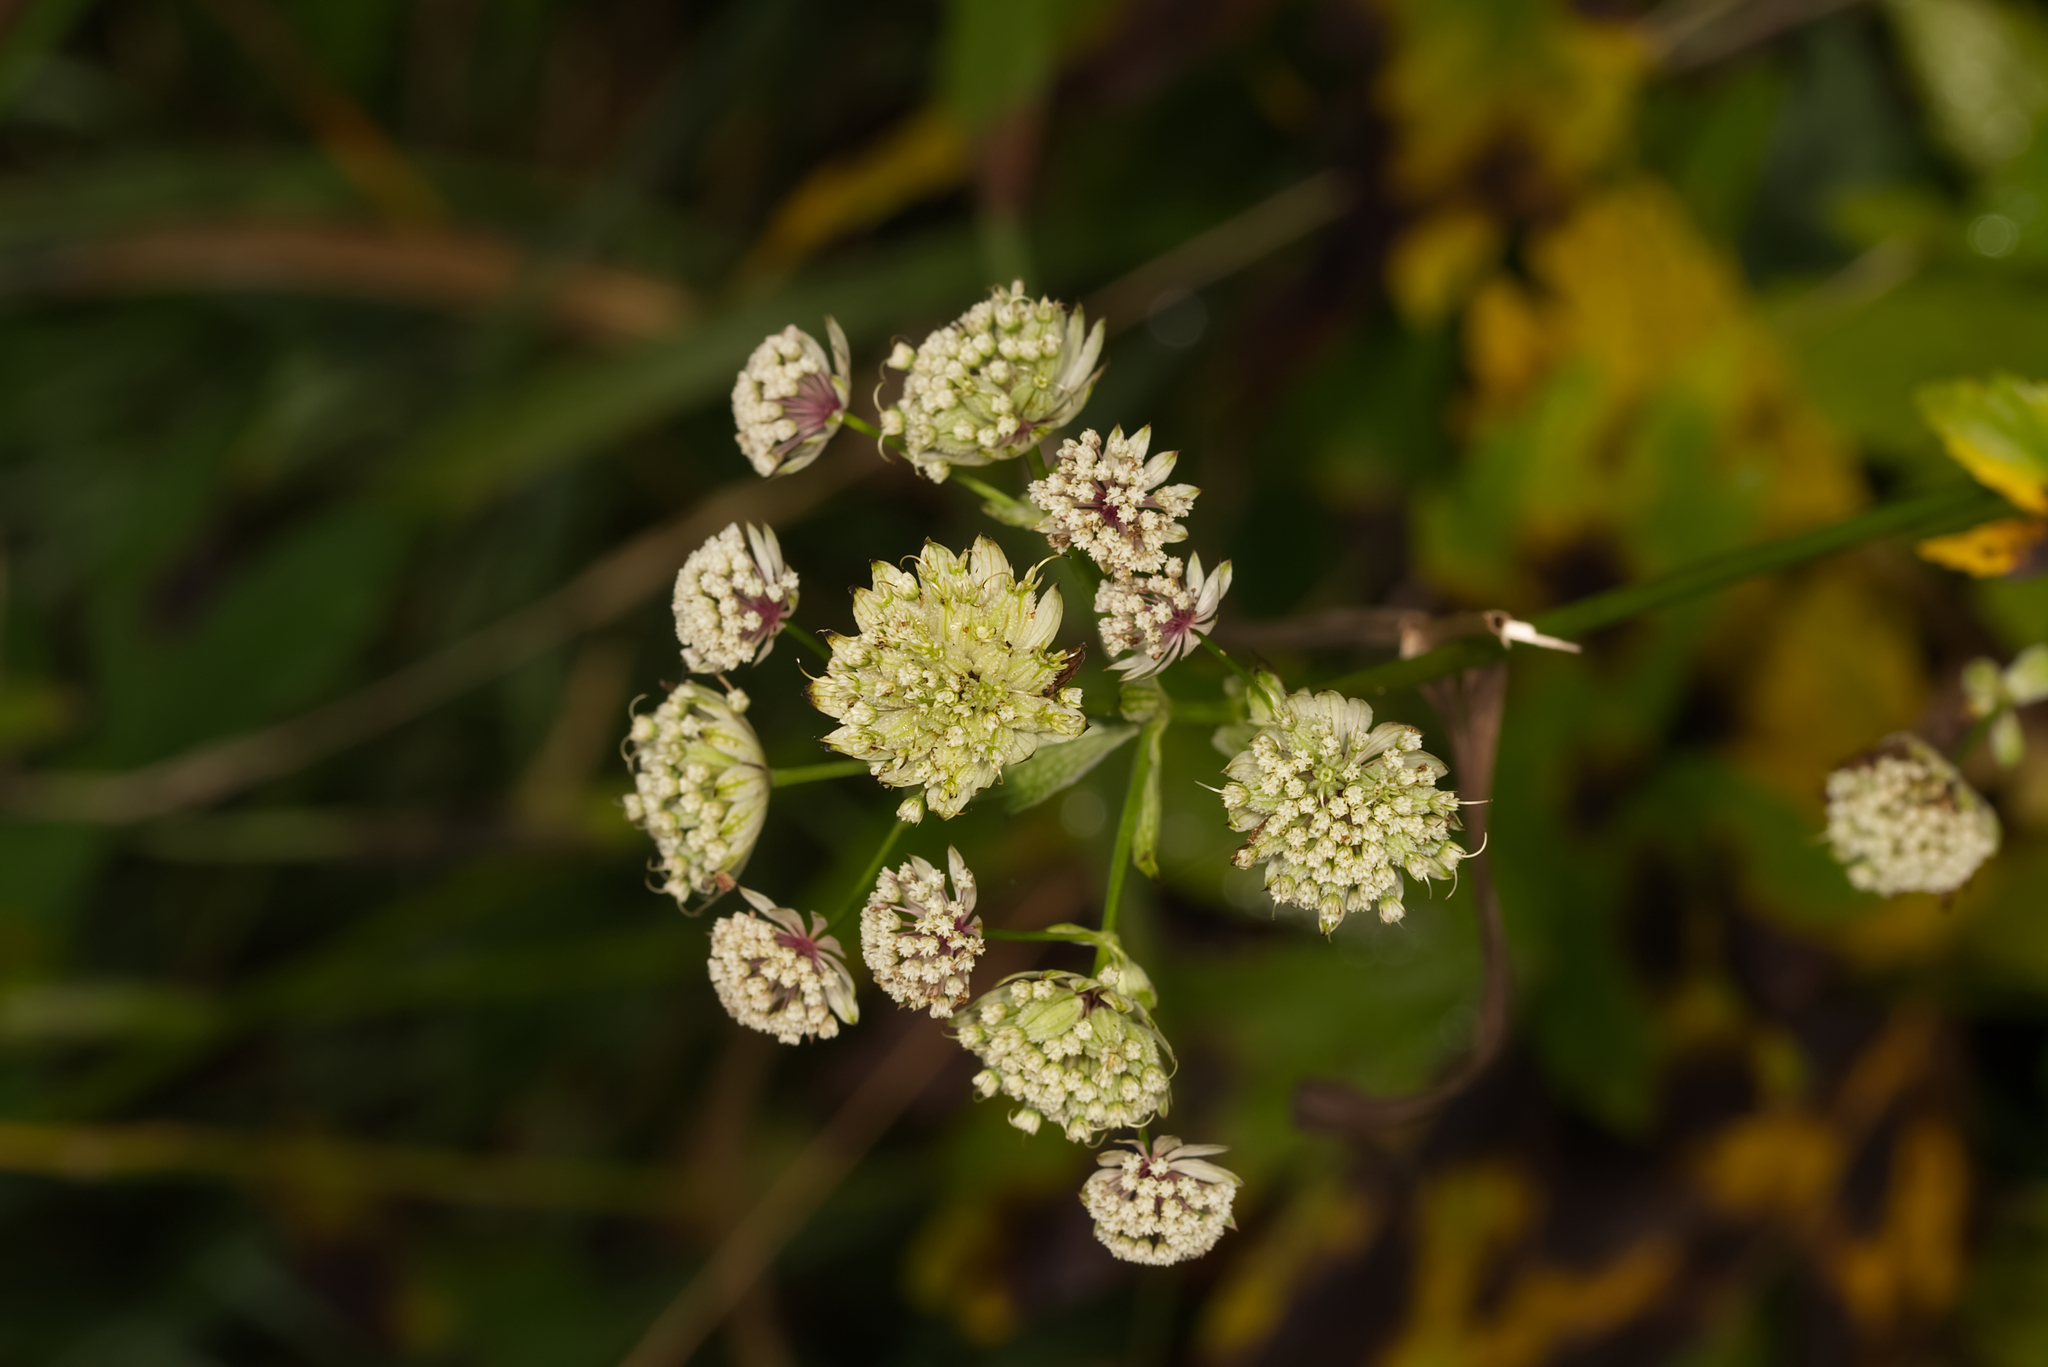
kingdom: Plantae
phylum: Tracheophyta
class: Magnoliopsida
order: Apiales
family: Apiaceae
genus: Astrantia
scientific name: Astrantia major
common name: Greater masterwort
